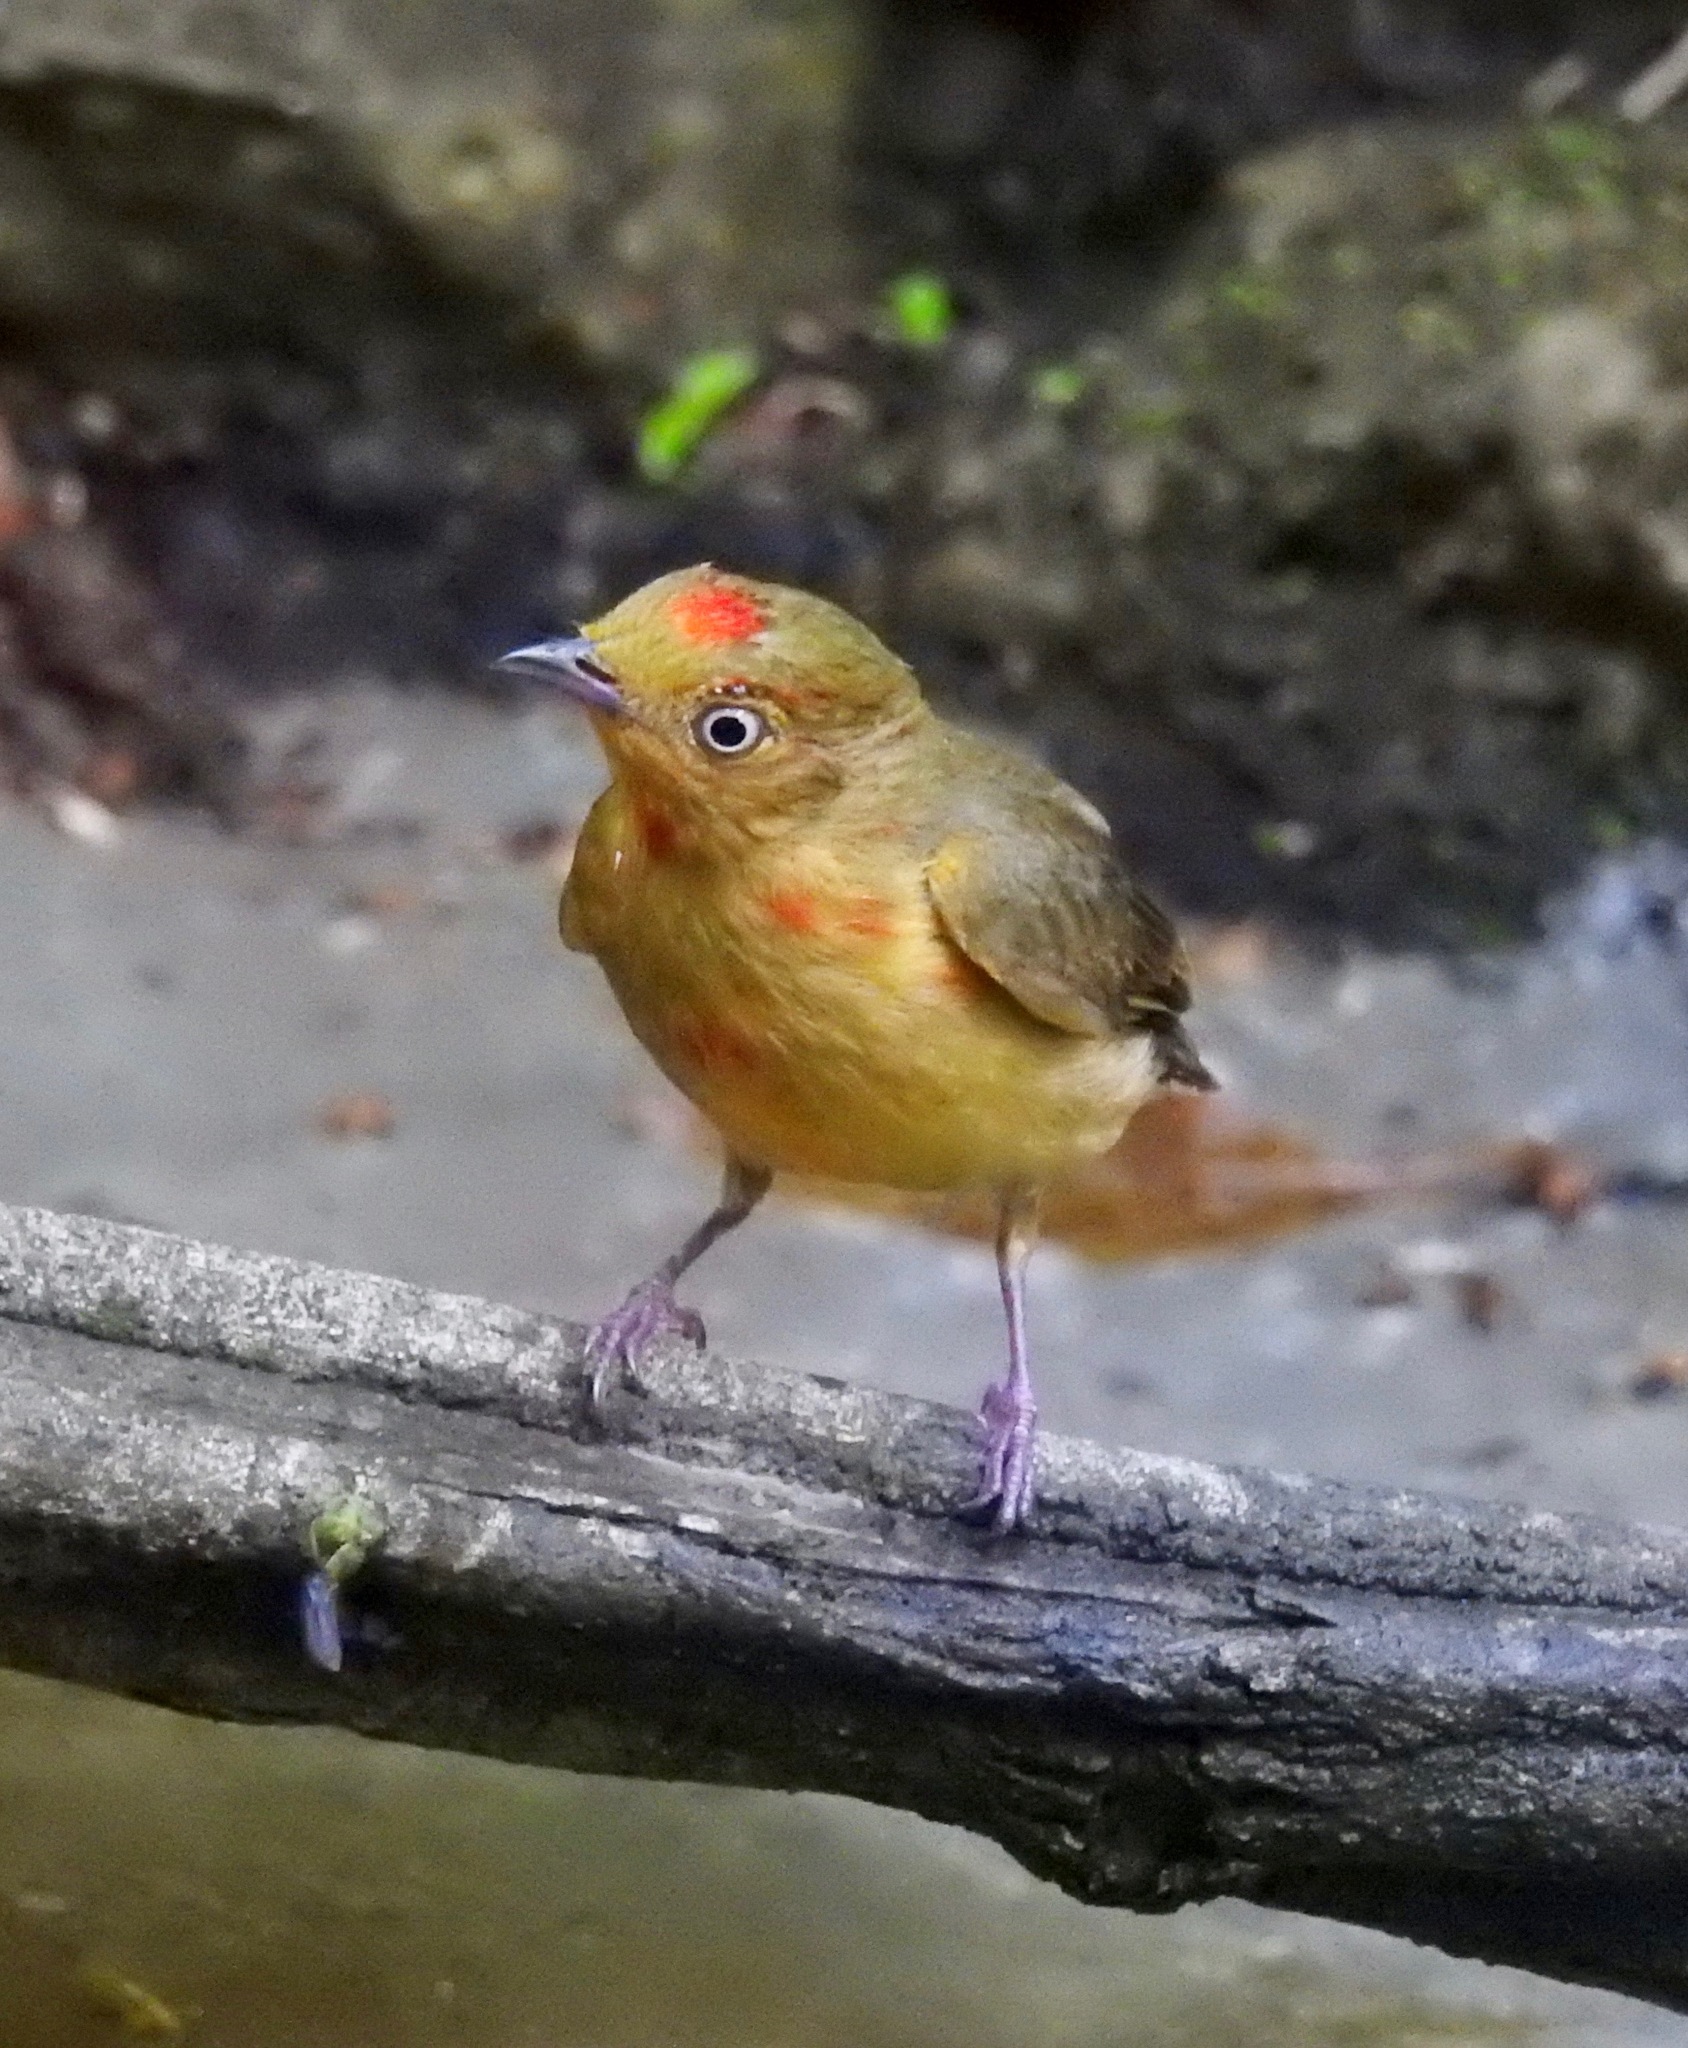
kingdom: Animalia
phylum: Chordata
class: Aves
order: Passeriformes
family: Pipridae
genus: Pipra
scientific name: Pipra fasciicauda
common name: Band-tailed manakin
